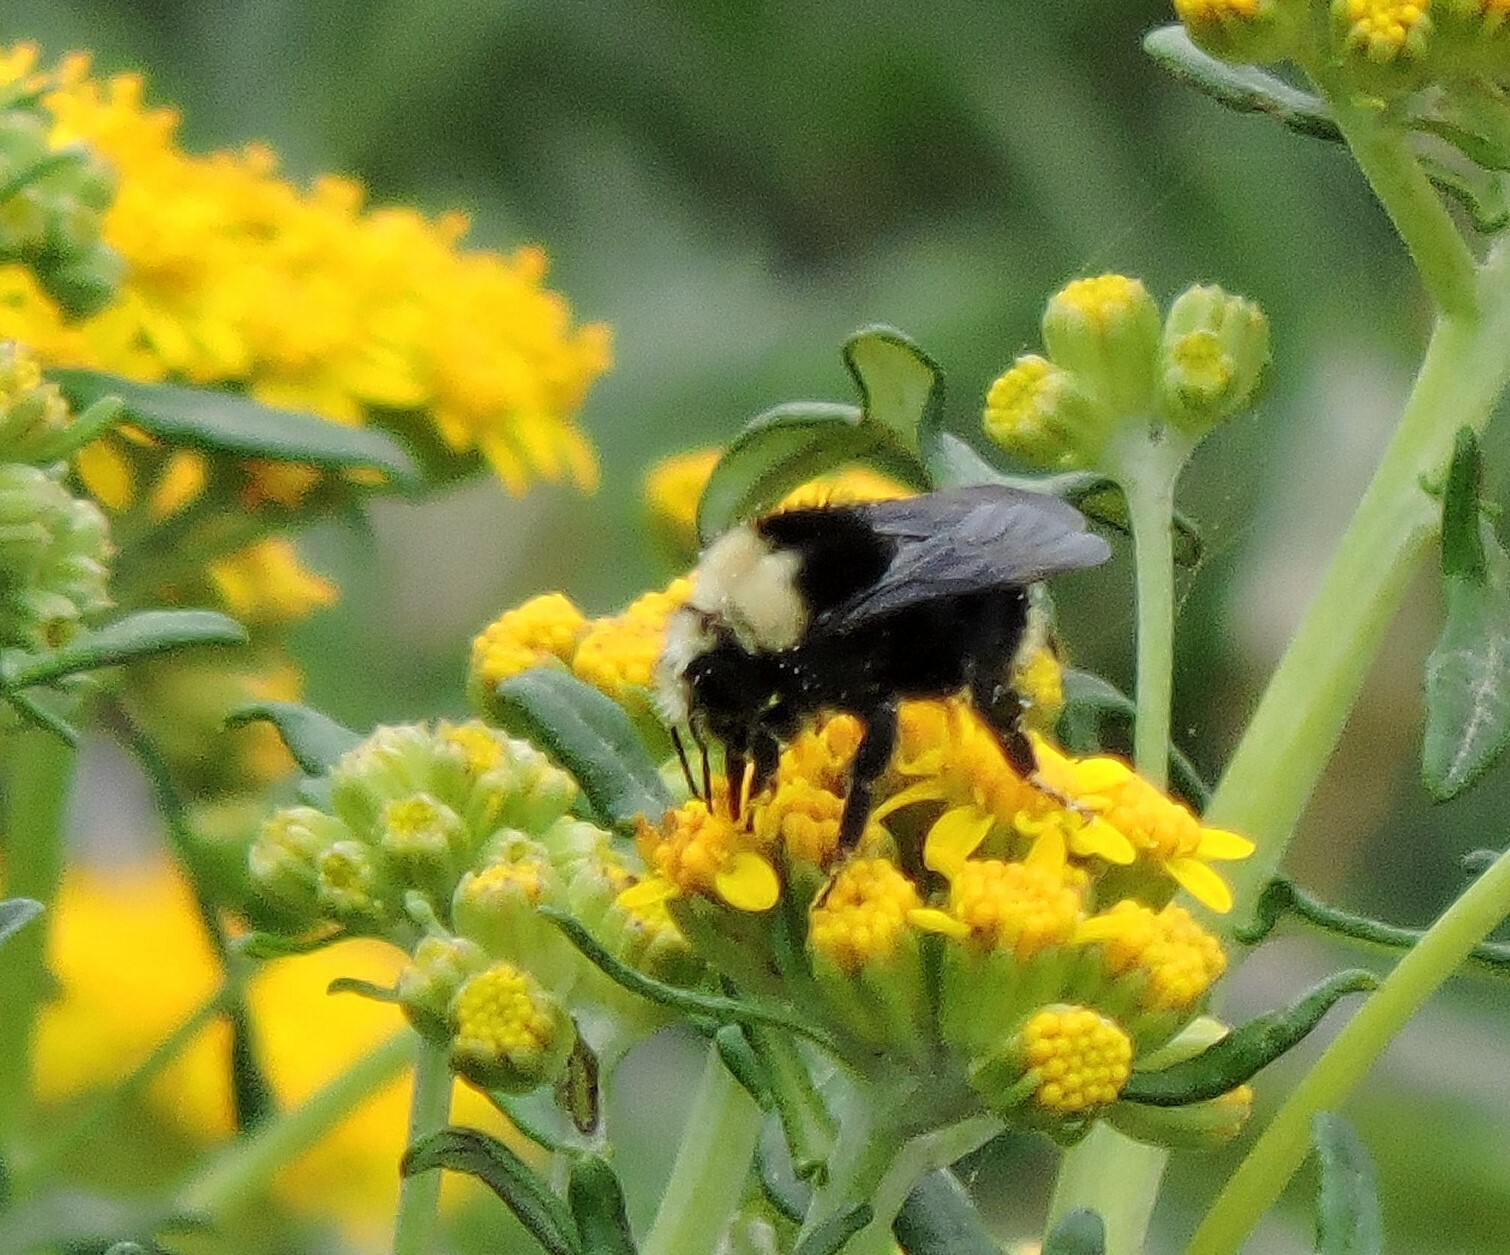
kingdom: Animalia
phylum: Arthropoda
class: Insecta
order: Hymenoptera
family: Apidae
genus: Pyrobombus
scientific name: Pyrobombus
